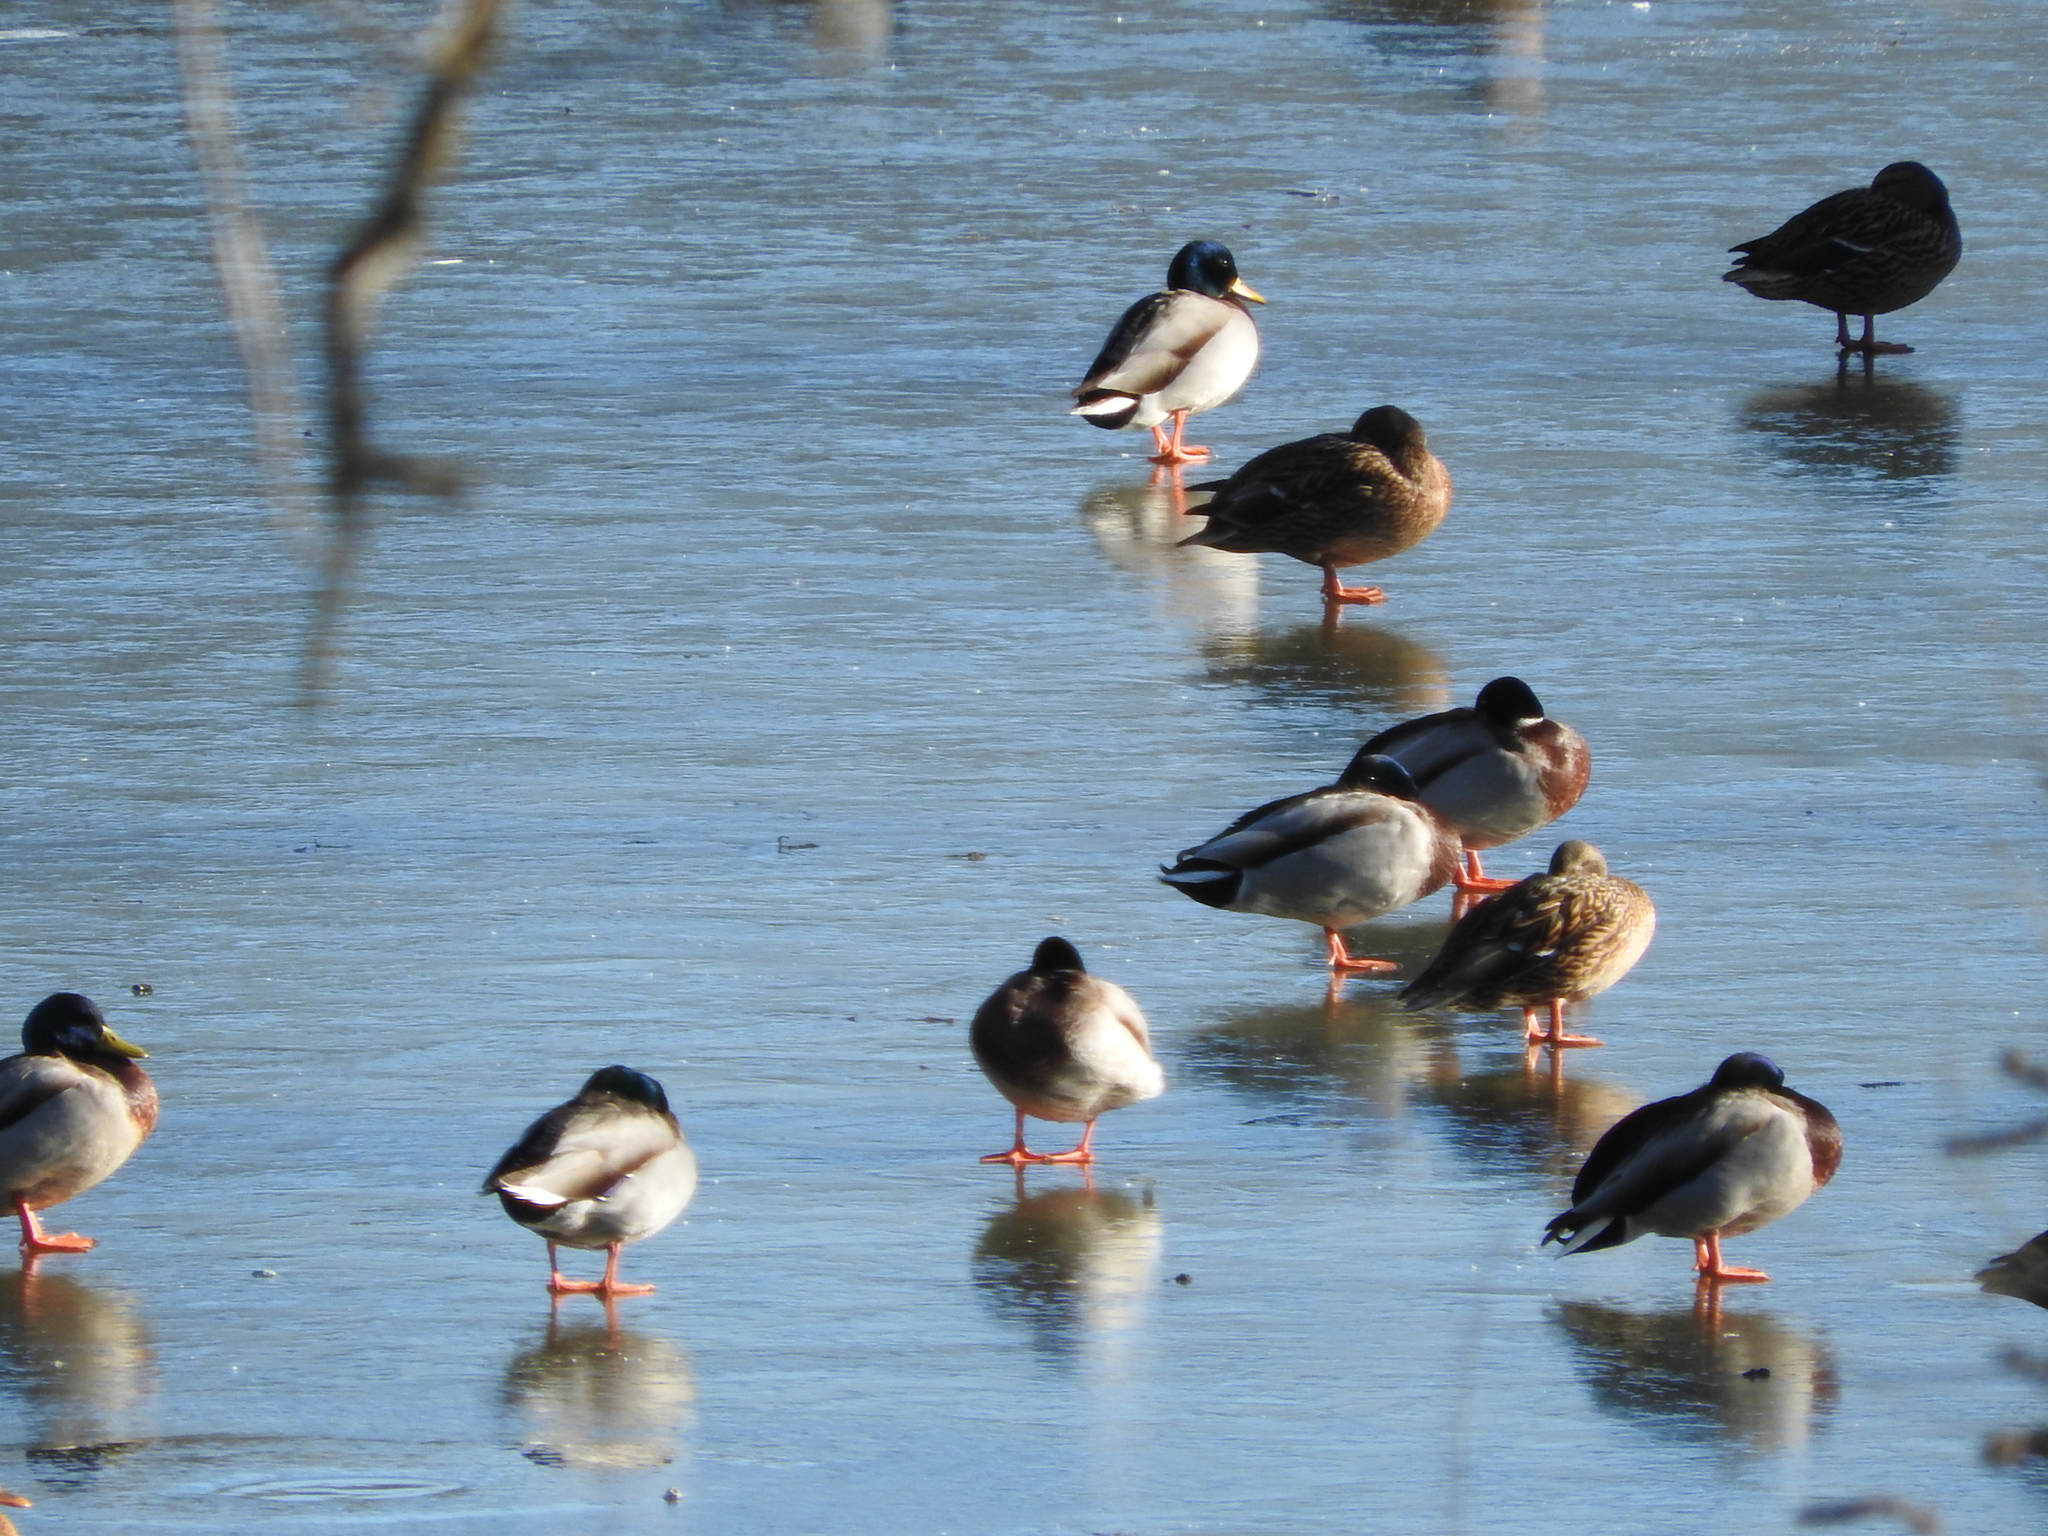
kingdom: Animalia
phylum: Chordata
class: Aves
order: Anseriformes
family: Anatidae
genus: Anas
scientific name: Anas platyrhynchos
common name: Mallard
